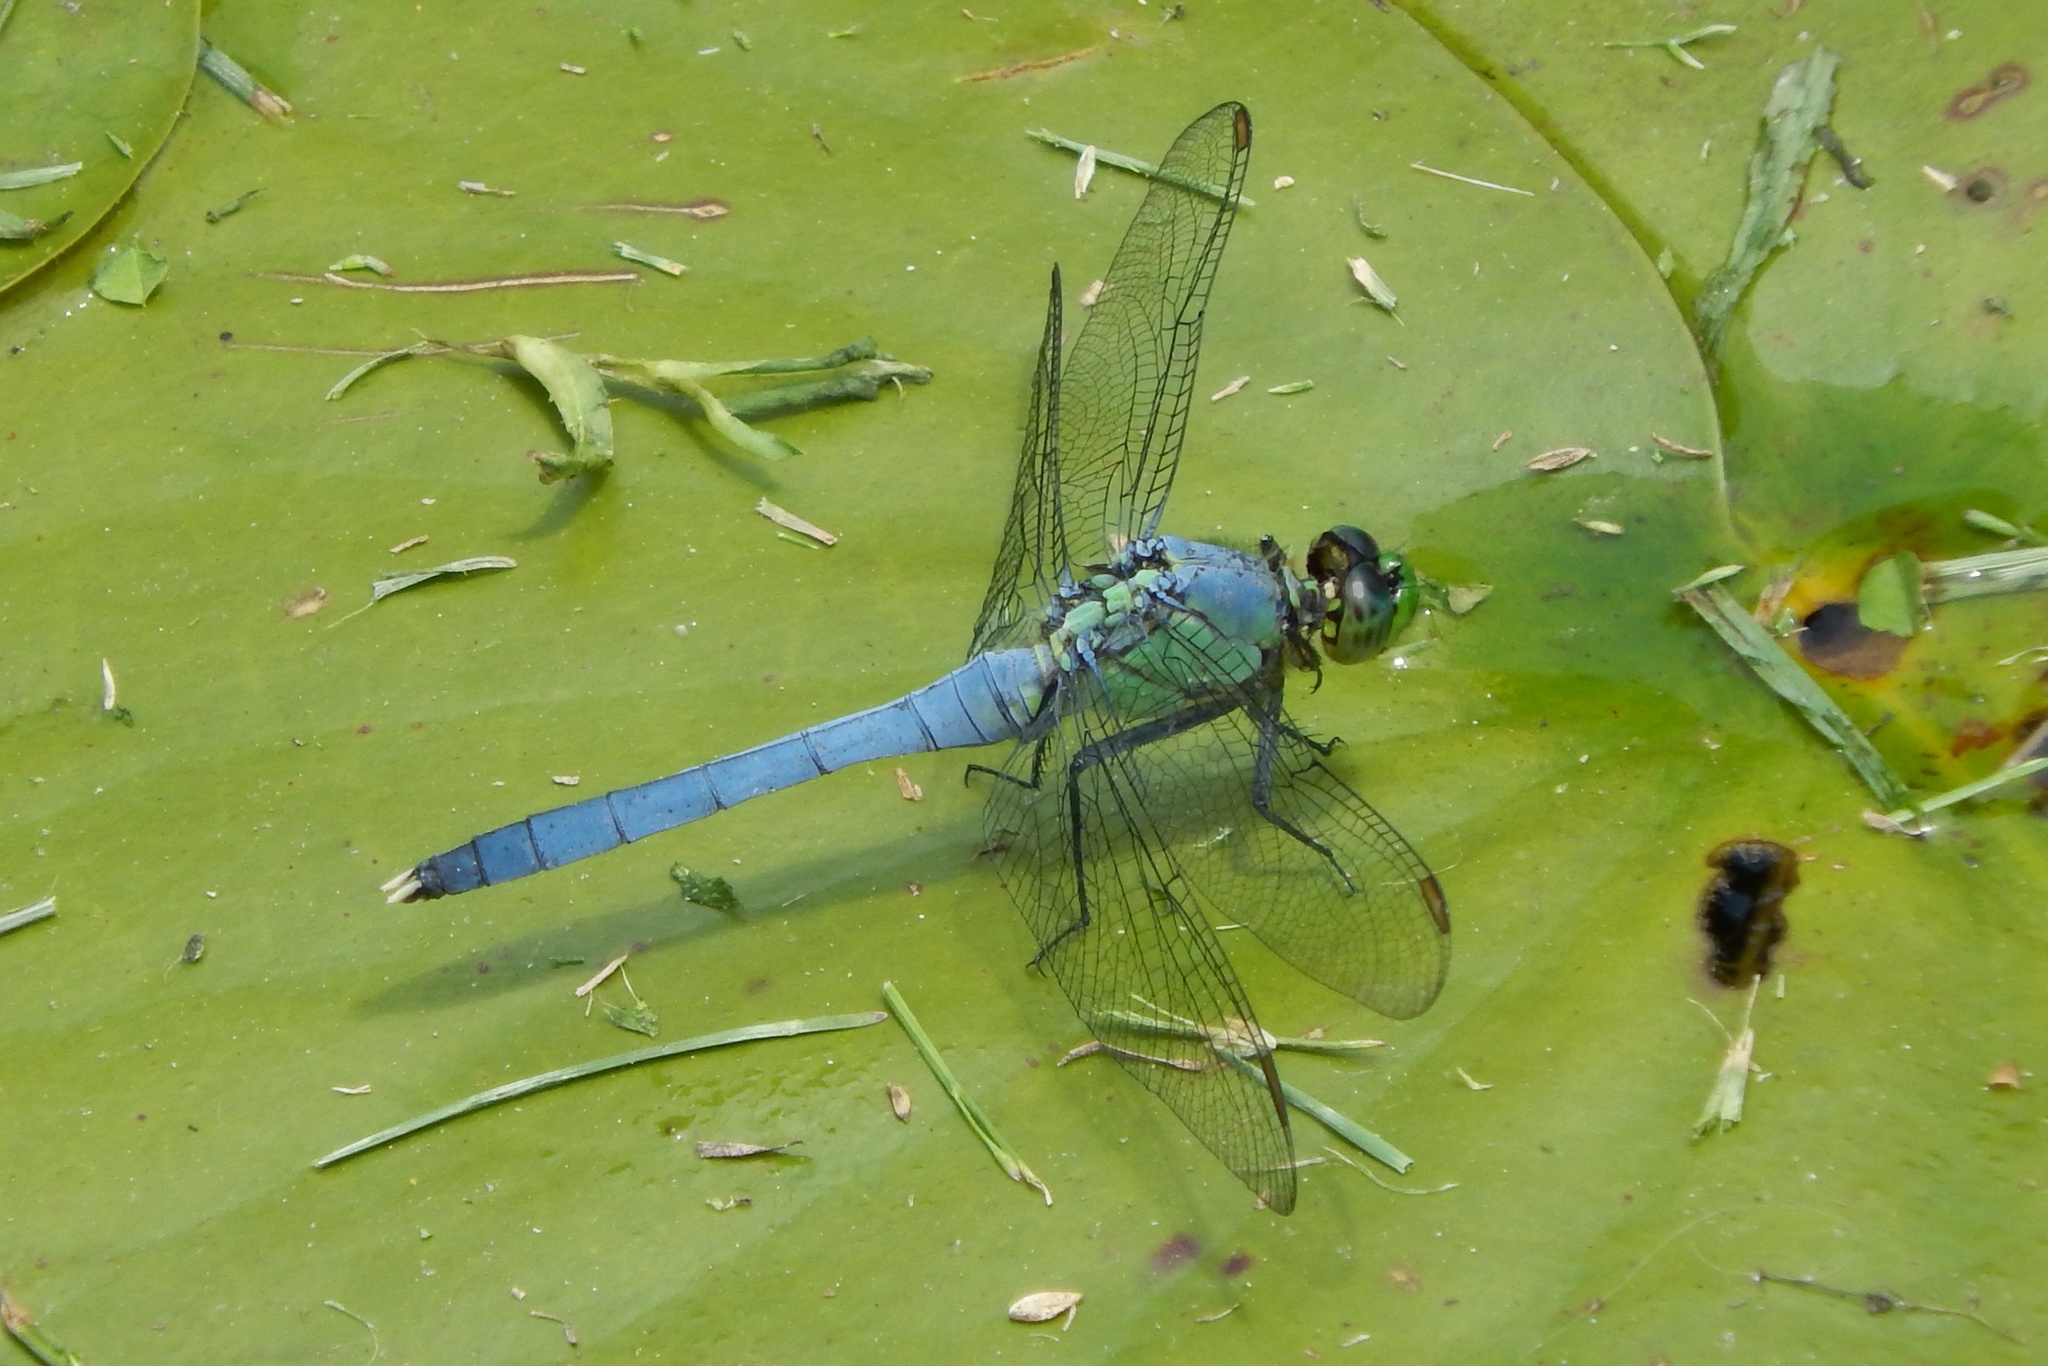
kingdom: Animalia
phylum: Arthropoda
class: Insecta
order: Odonata
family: Libellulidae
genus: Erythemis
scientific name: Erythemis simplicicollis
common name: Eastern pondhawk
